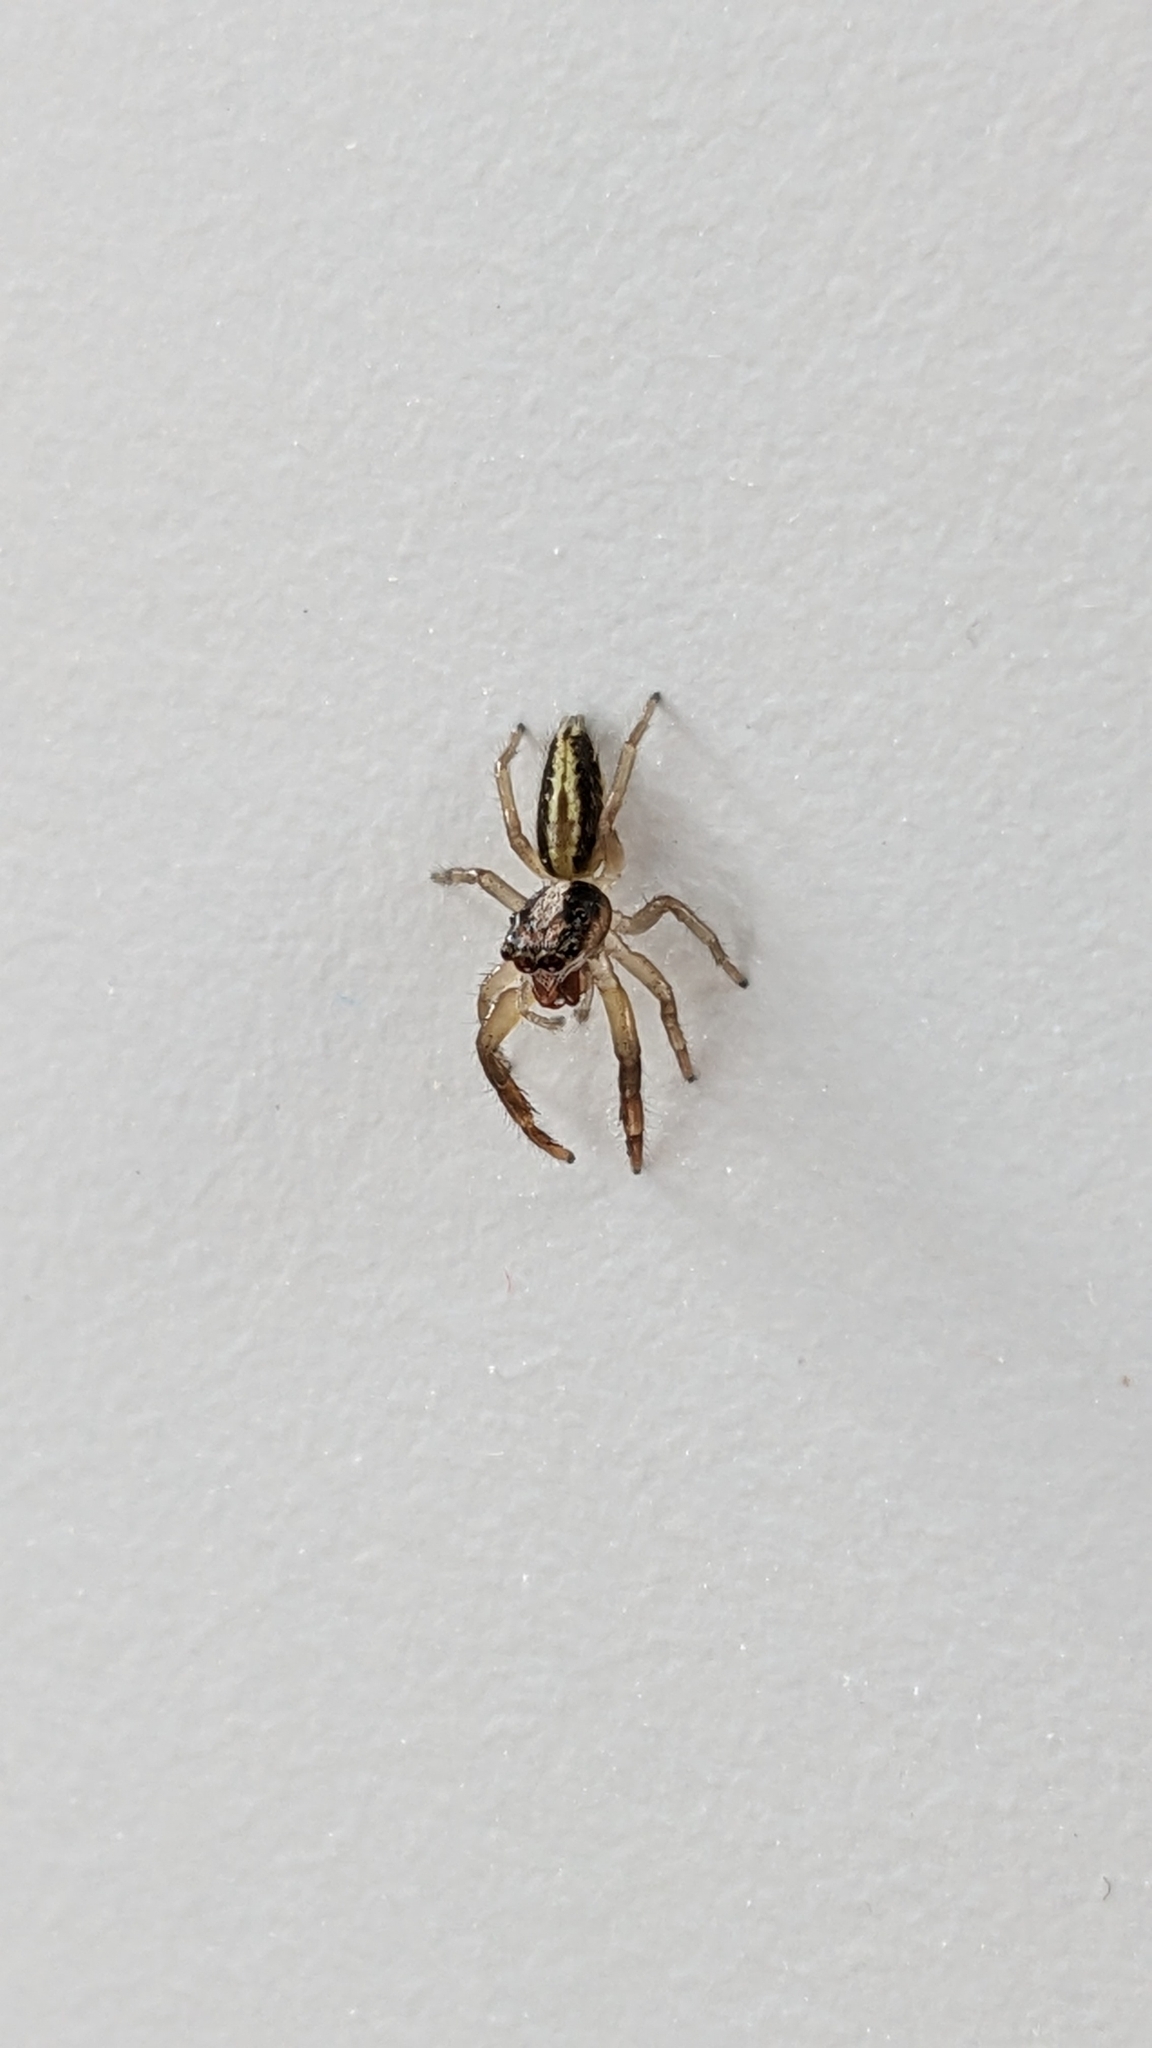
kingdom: Animalia
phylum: Arthropoda
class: Arachnida
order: Araneae
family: Salticidae
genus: Trite
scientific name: Trite planiceps
